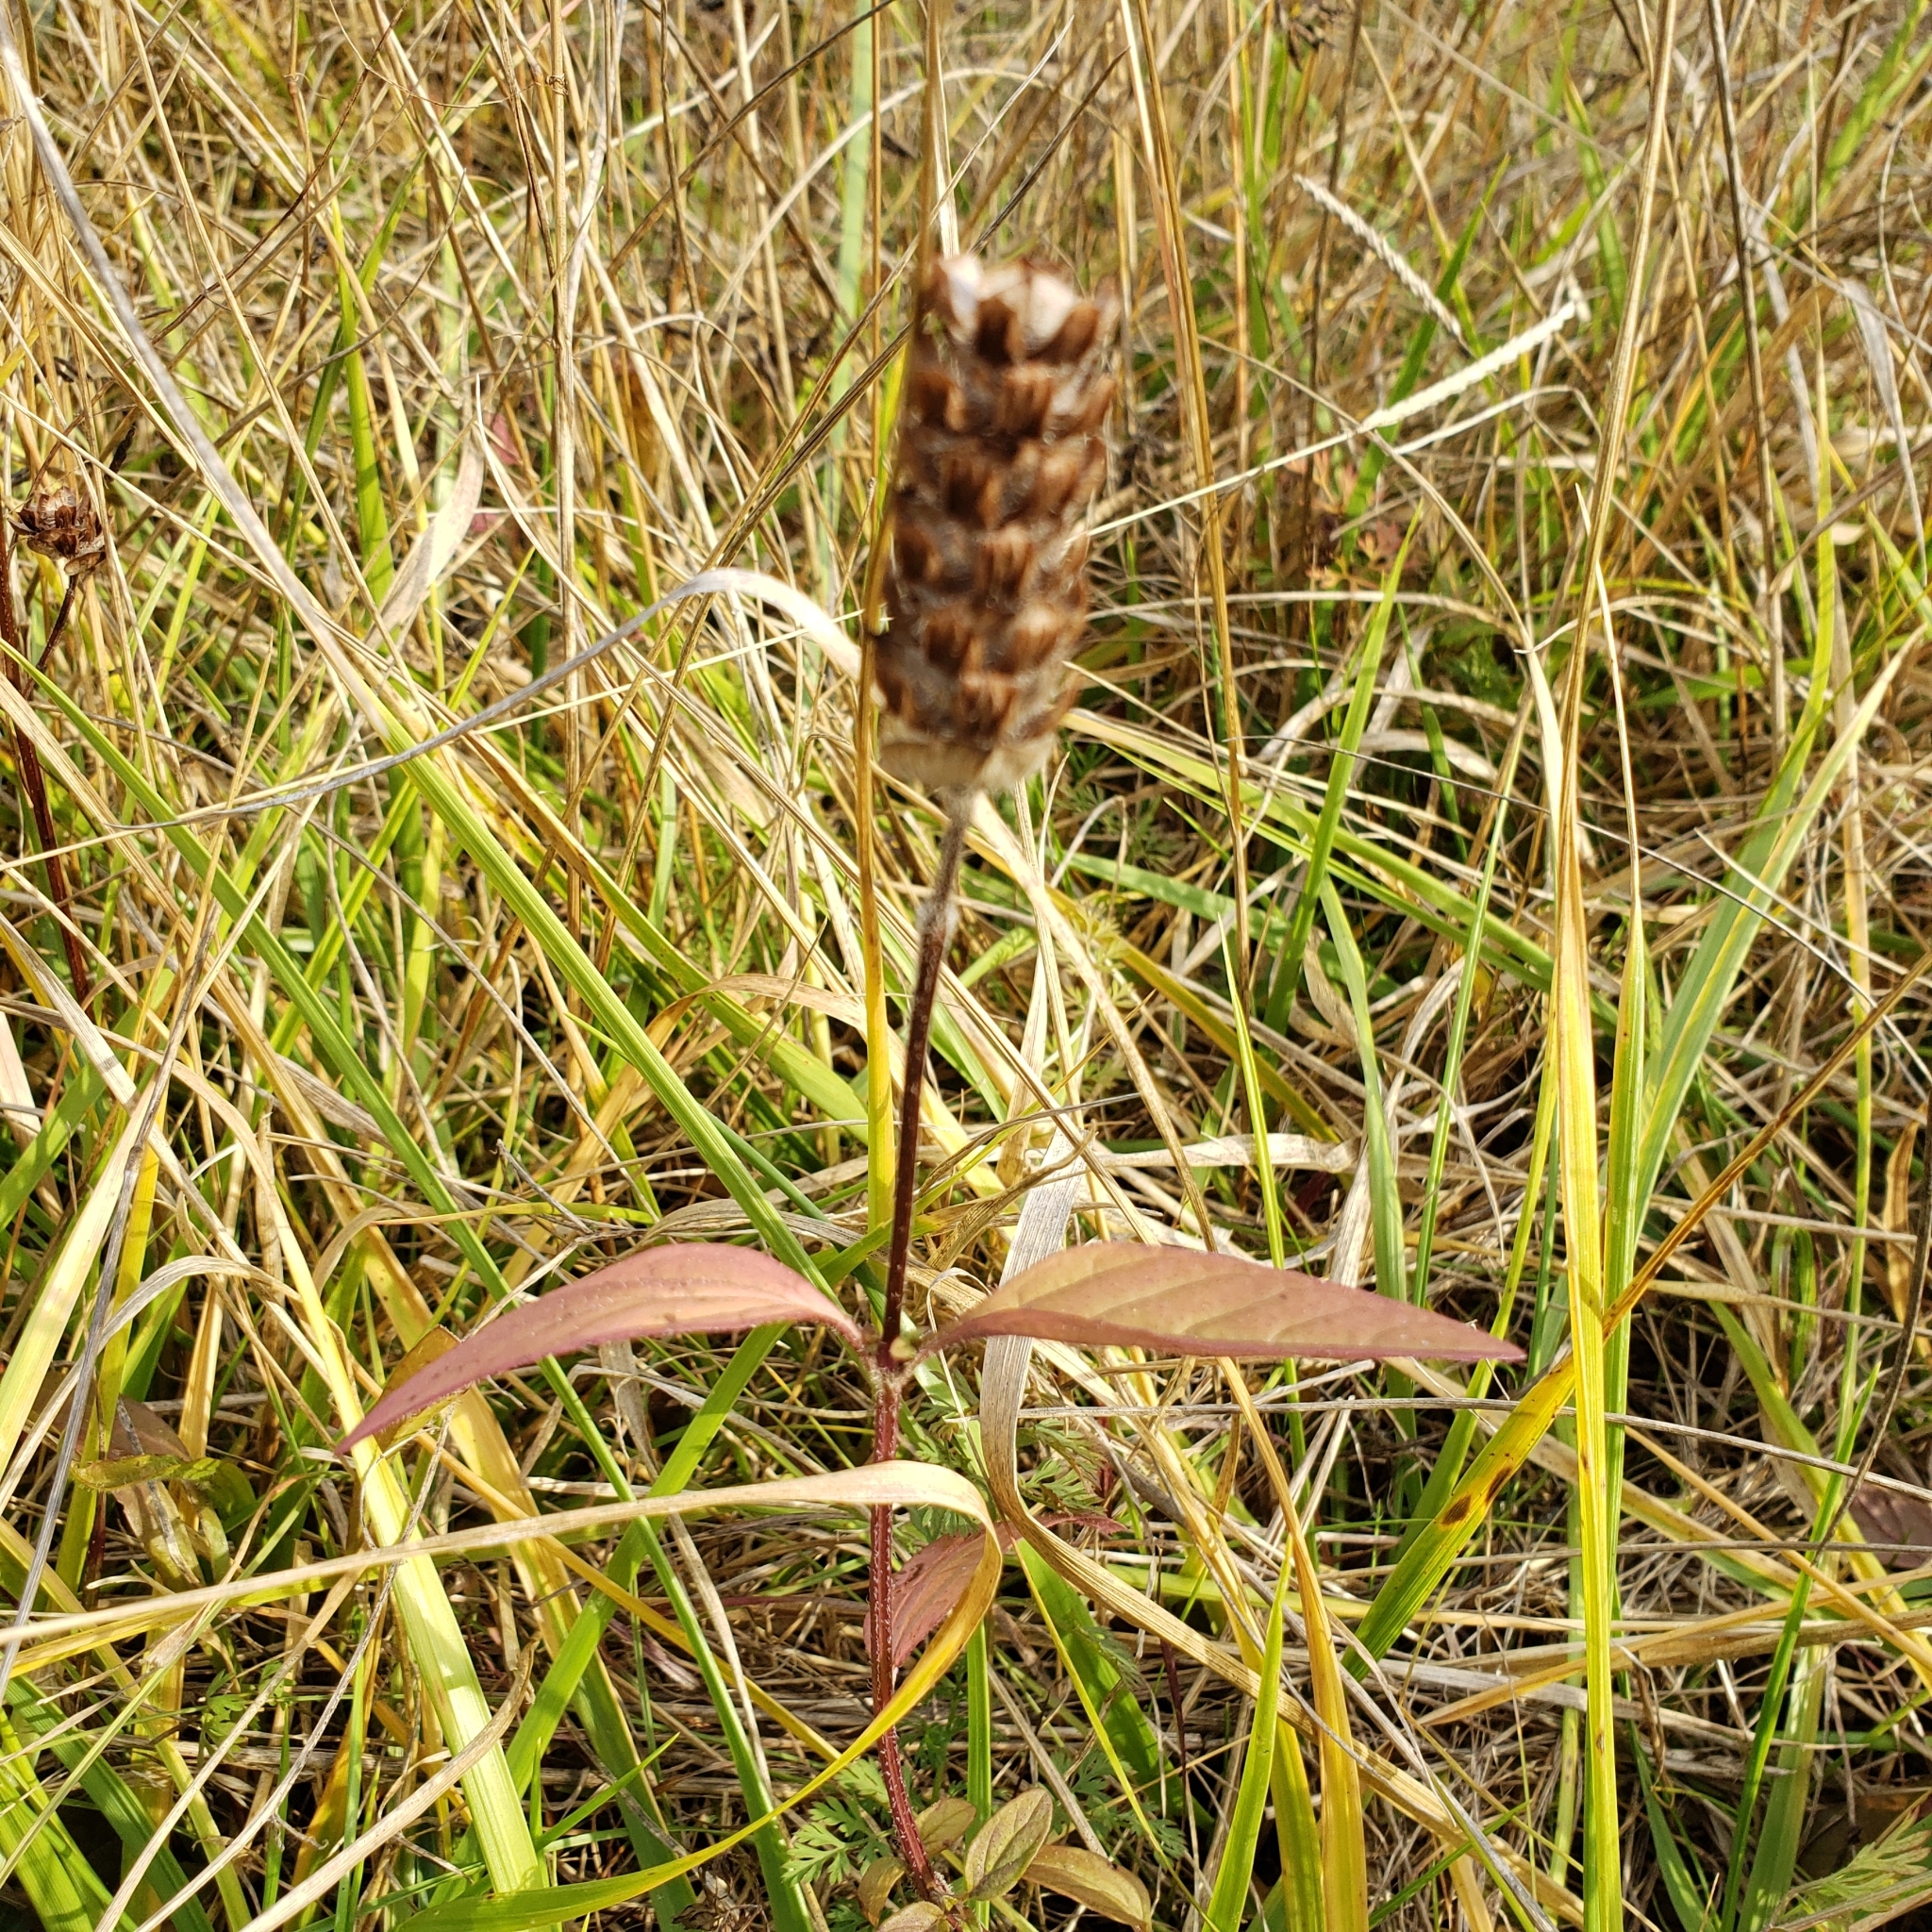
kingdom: Plantae
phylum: Tracheophyta
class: Magnoliopsida
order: Lamiales
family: Lamiaceae
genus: Prunella
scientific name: Prunella vulgaris
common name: Heal-all
